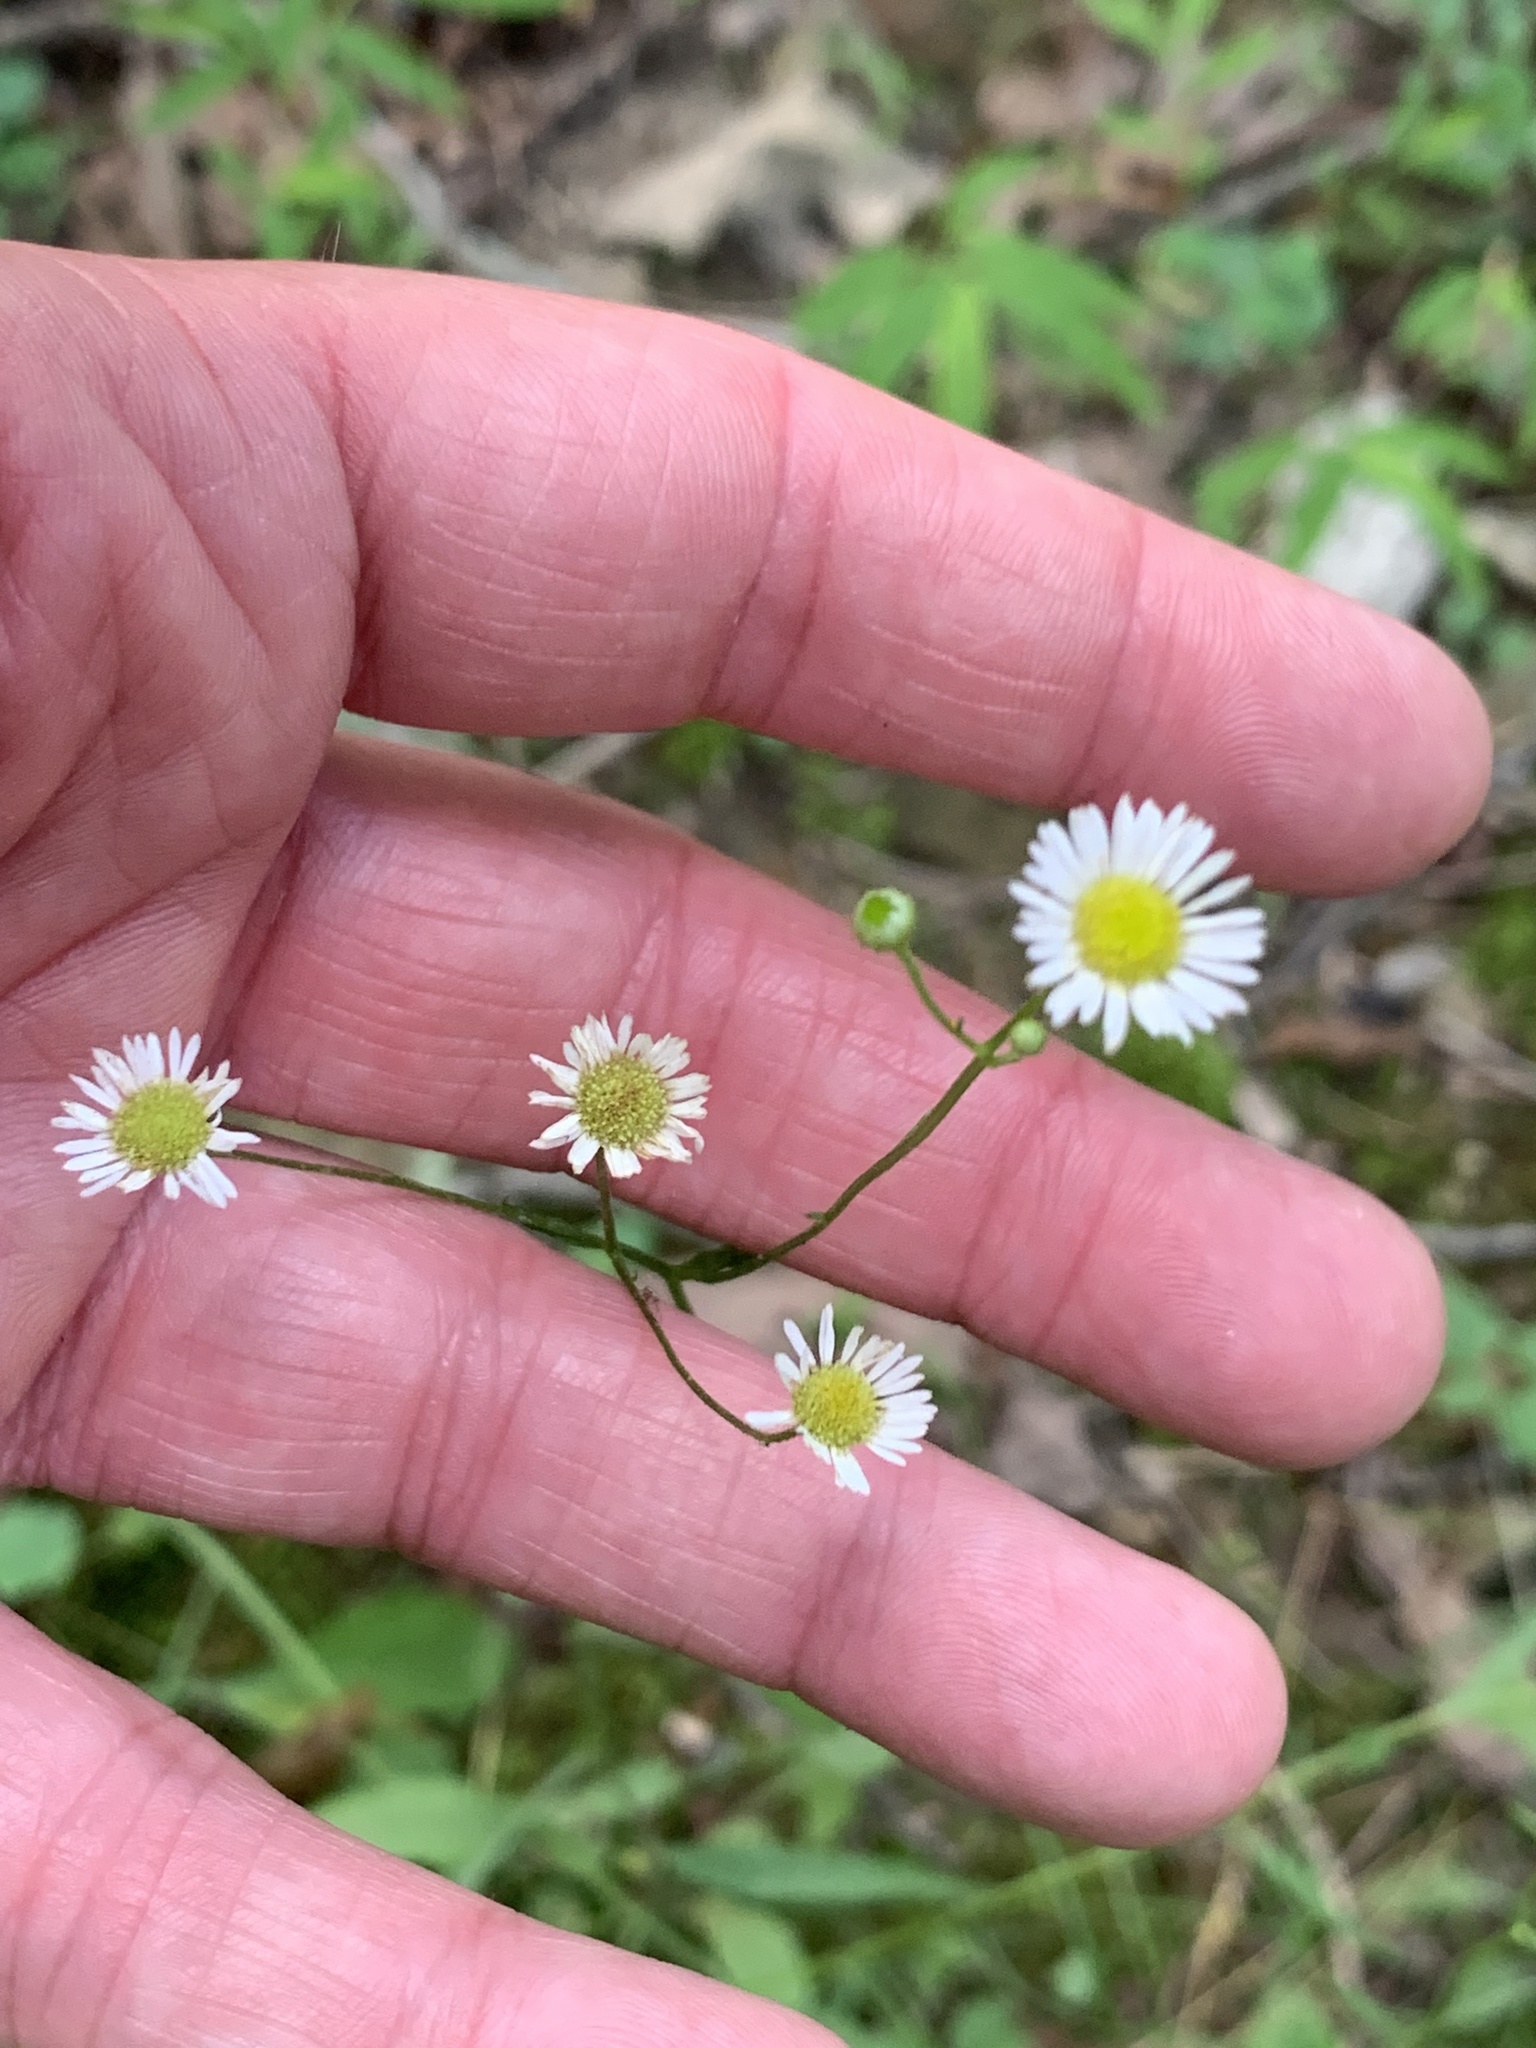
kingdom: Plantae
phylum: Tracheophyta
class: Magnoliopsida
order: Asterales
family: Asteraceae
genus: Erigeron
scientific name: Erigeron strigosus
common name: Common eastern fleabane
